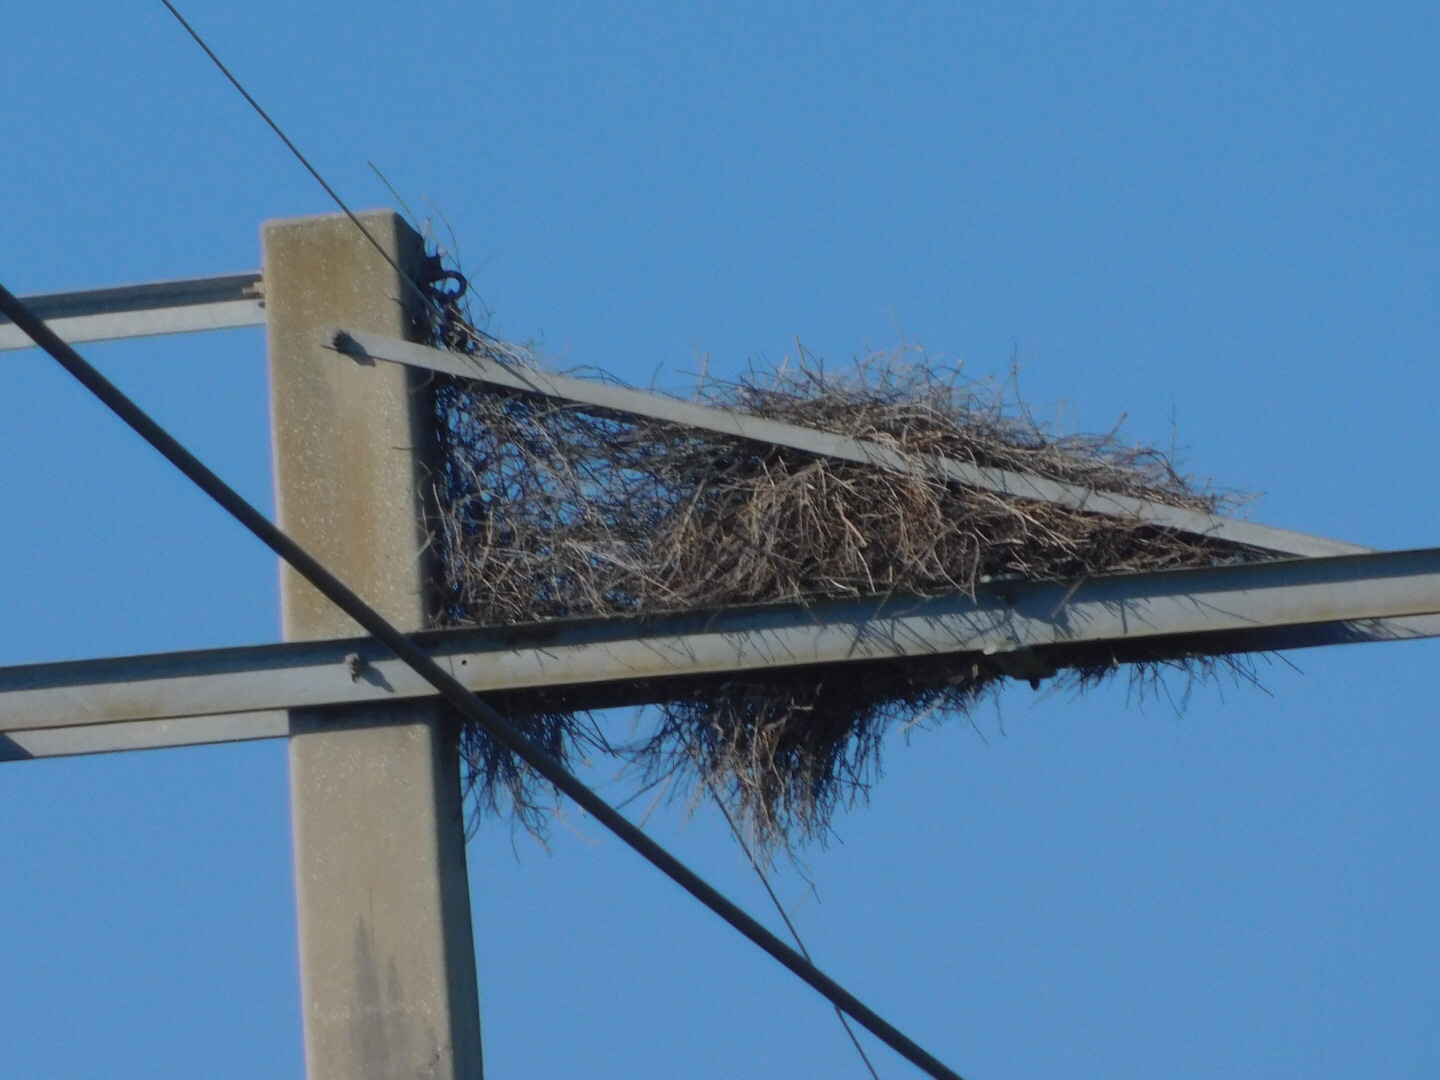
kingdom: Animalia
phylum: Chordata
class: Aves
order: Psittaciformes
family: Psittacidae
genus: Myiopsitta
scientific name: Myiopsitta monachus
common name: Monk parakeet
